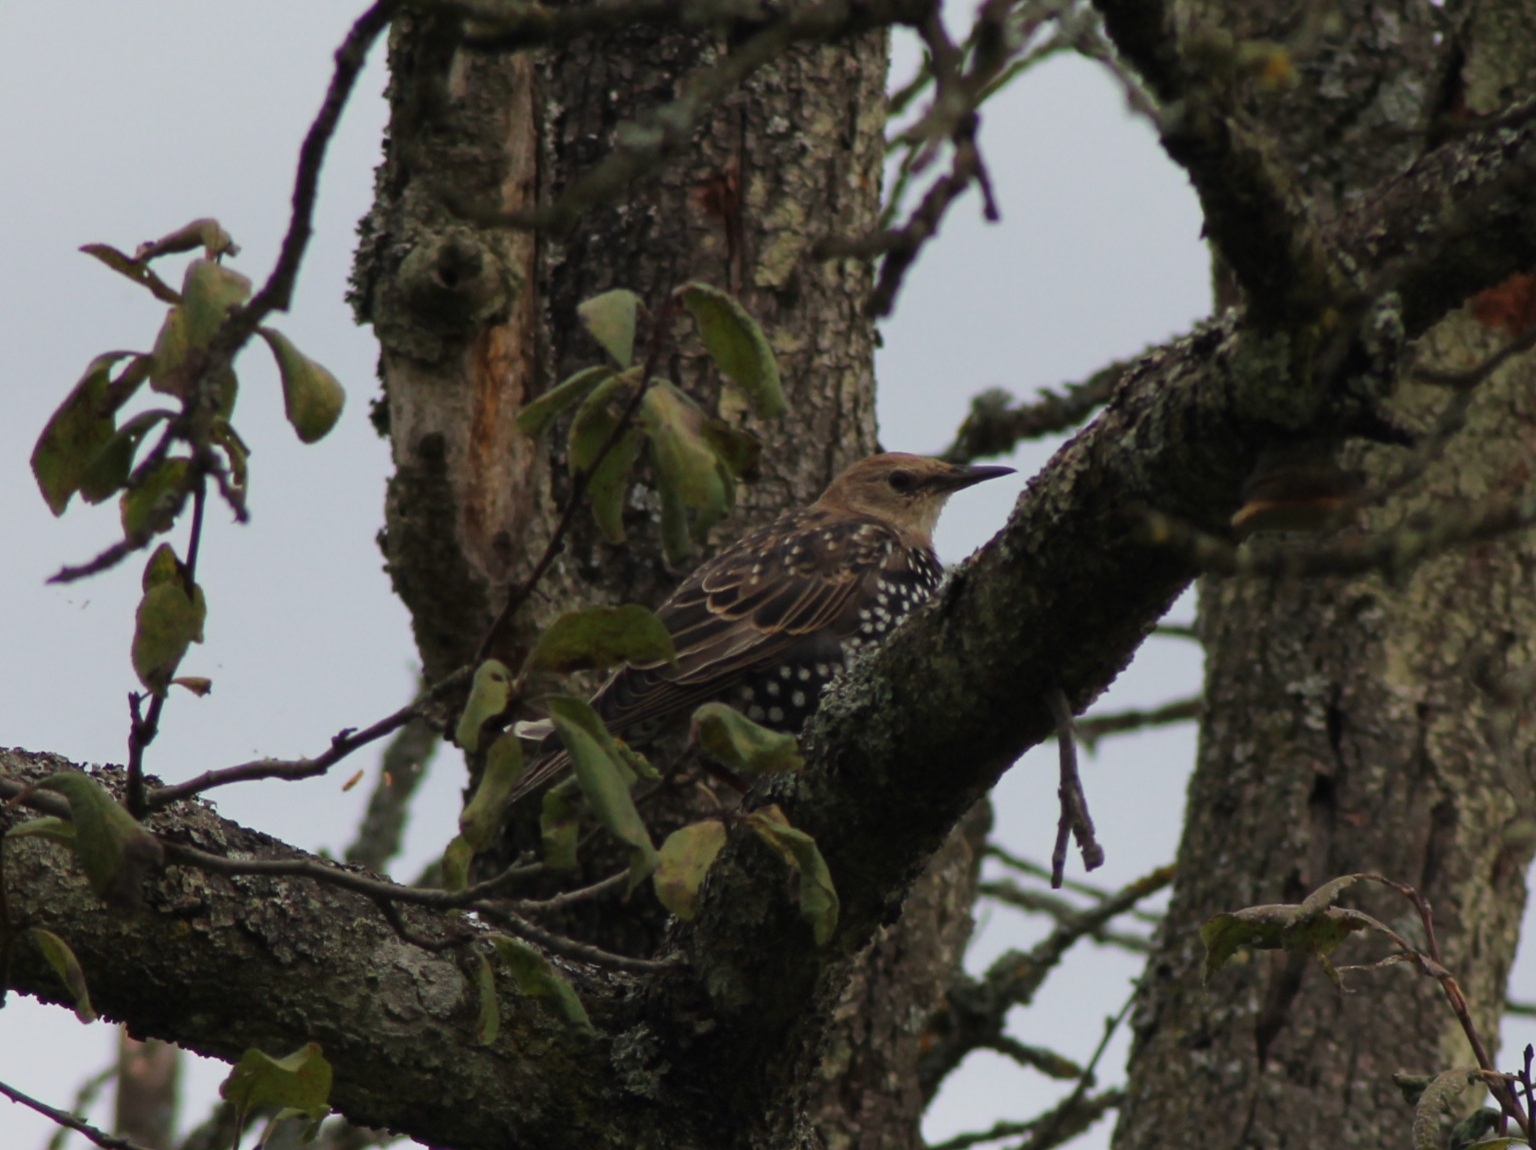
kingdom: Animalia
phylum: Chordata
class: Aves
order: Passeriformes
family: Sturnidae
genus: Sturnus
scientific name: Sturnus vulgaris
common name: Common starling
